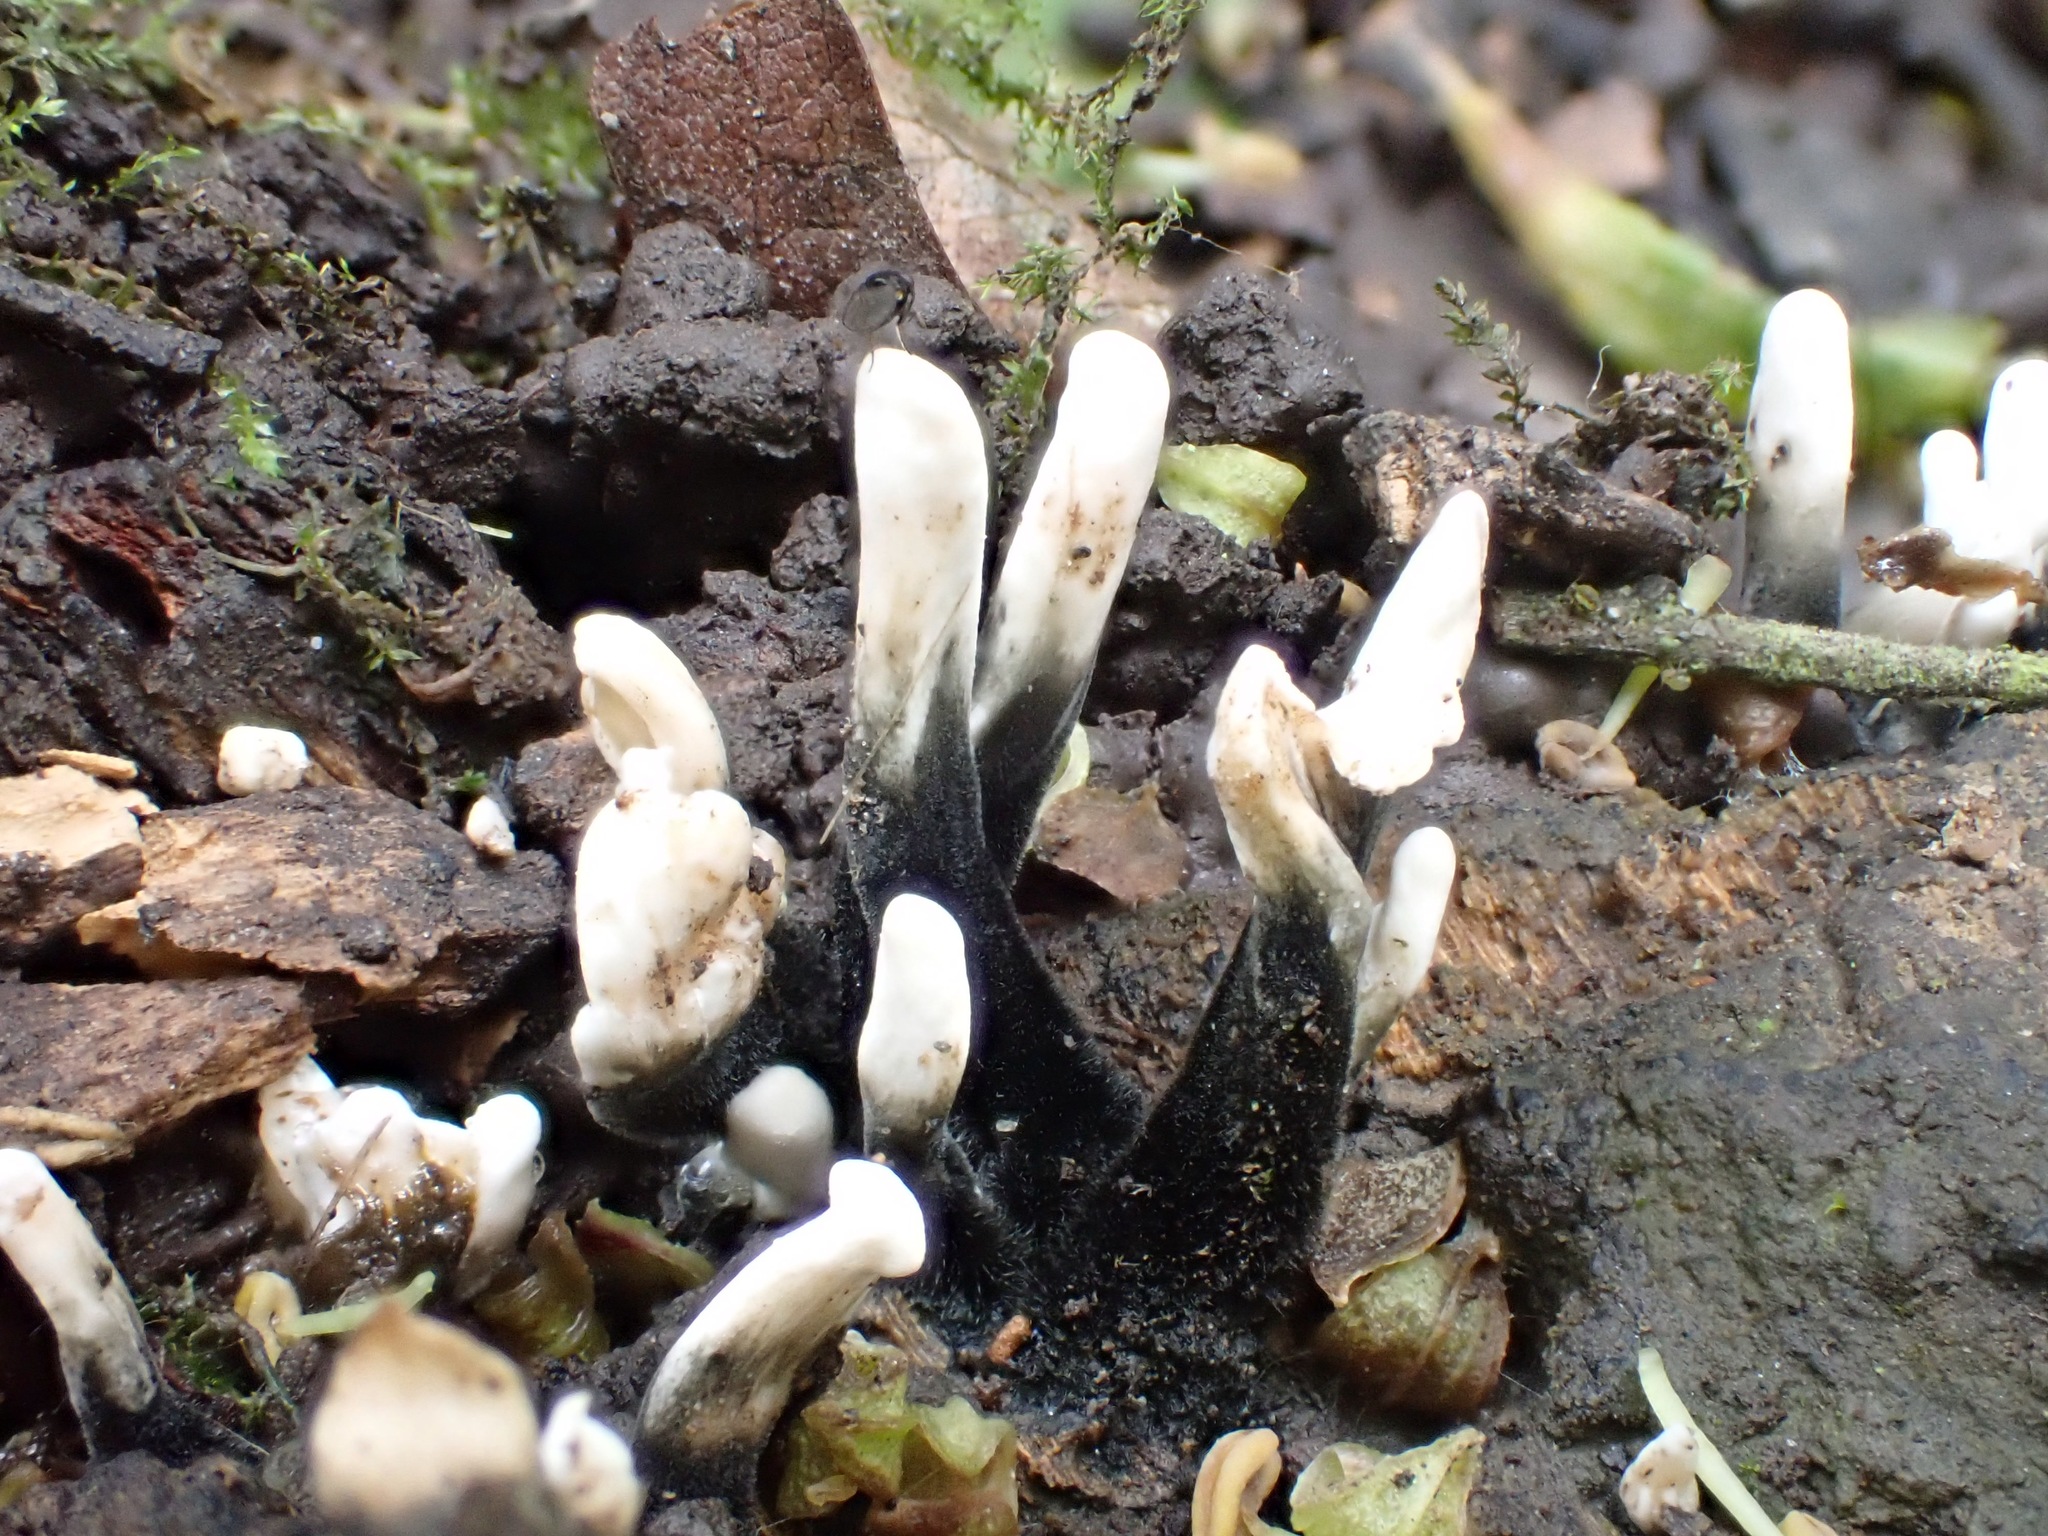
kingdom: Fungi
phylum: Ascomycota
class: Sordariomycetes
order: Xylariales
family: Xylariaceae
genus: Xylaria
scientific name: Xylaria hypoxylon
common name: Candle-snuff fungus
